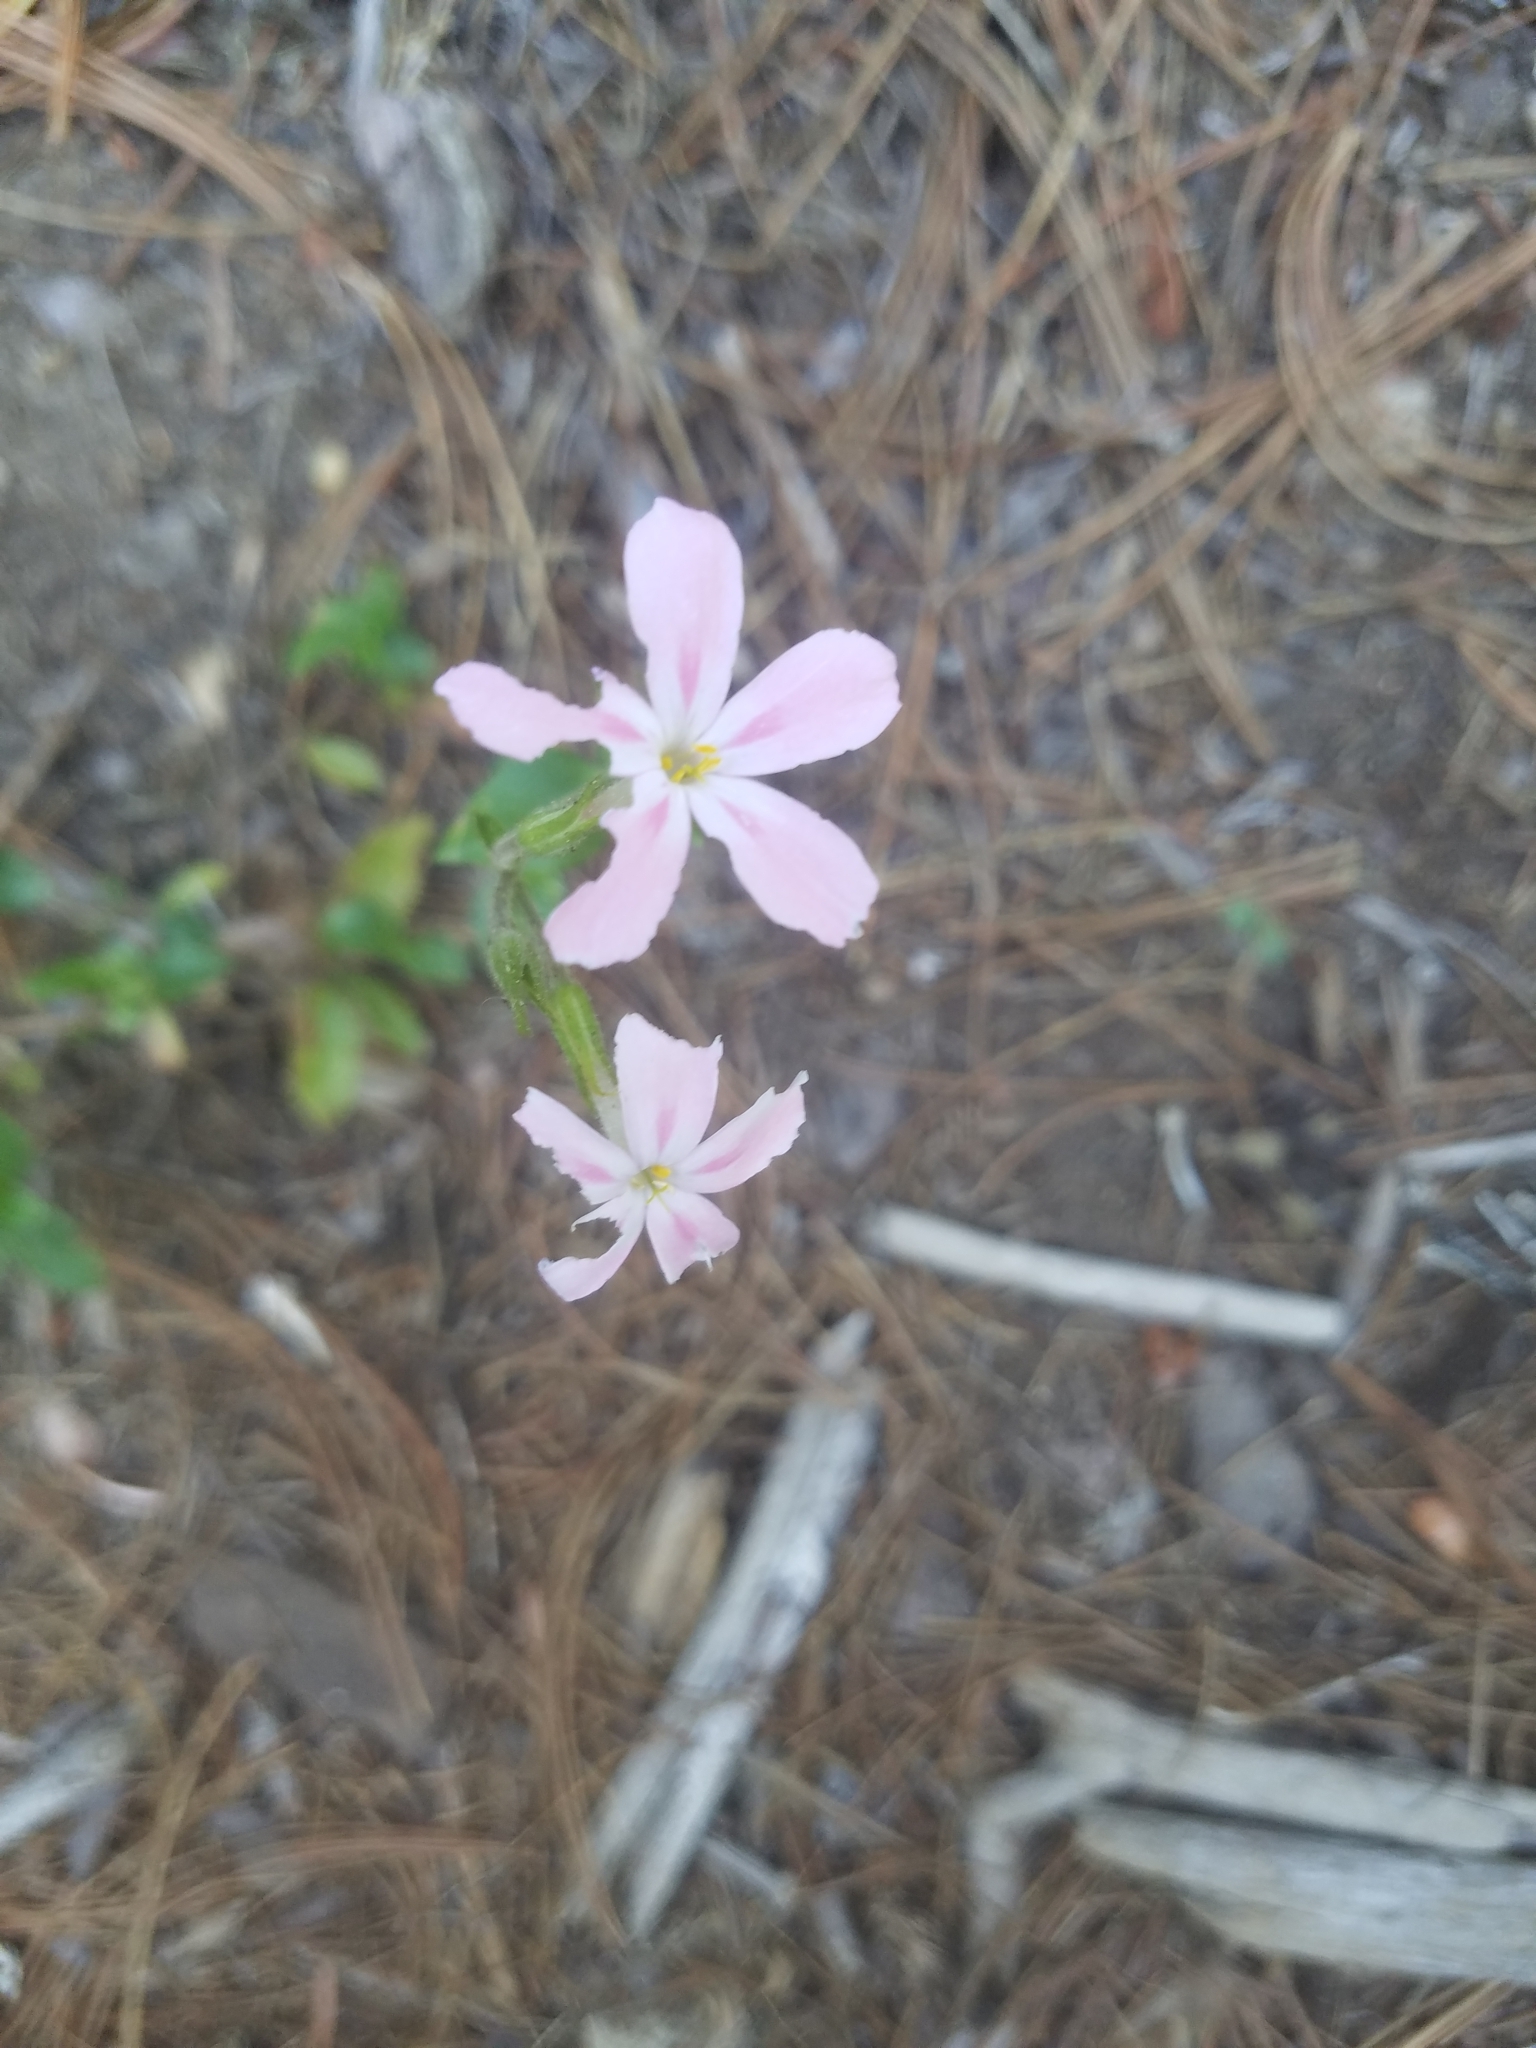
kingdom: Plantae
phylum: Tracheophyta
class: Magnoliopsida
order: Ericales
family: Polemoniaceae
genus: Phlox
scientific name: Phlox adsurgens
